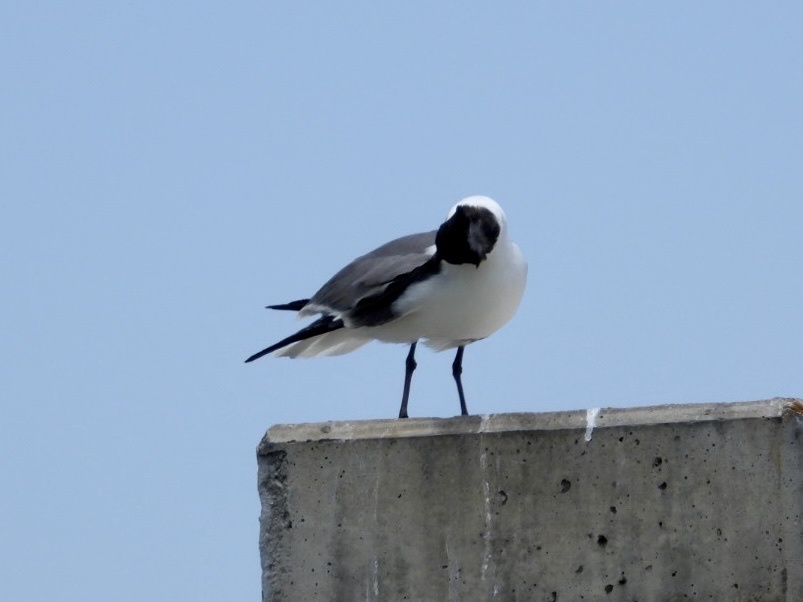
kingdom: Animalia
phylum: Chordata
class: Aves
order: Charadriiformes
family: Laridae
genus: Leucophaeus
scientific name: Leucophaeus atricilla
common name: Laughing gull
